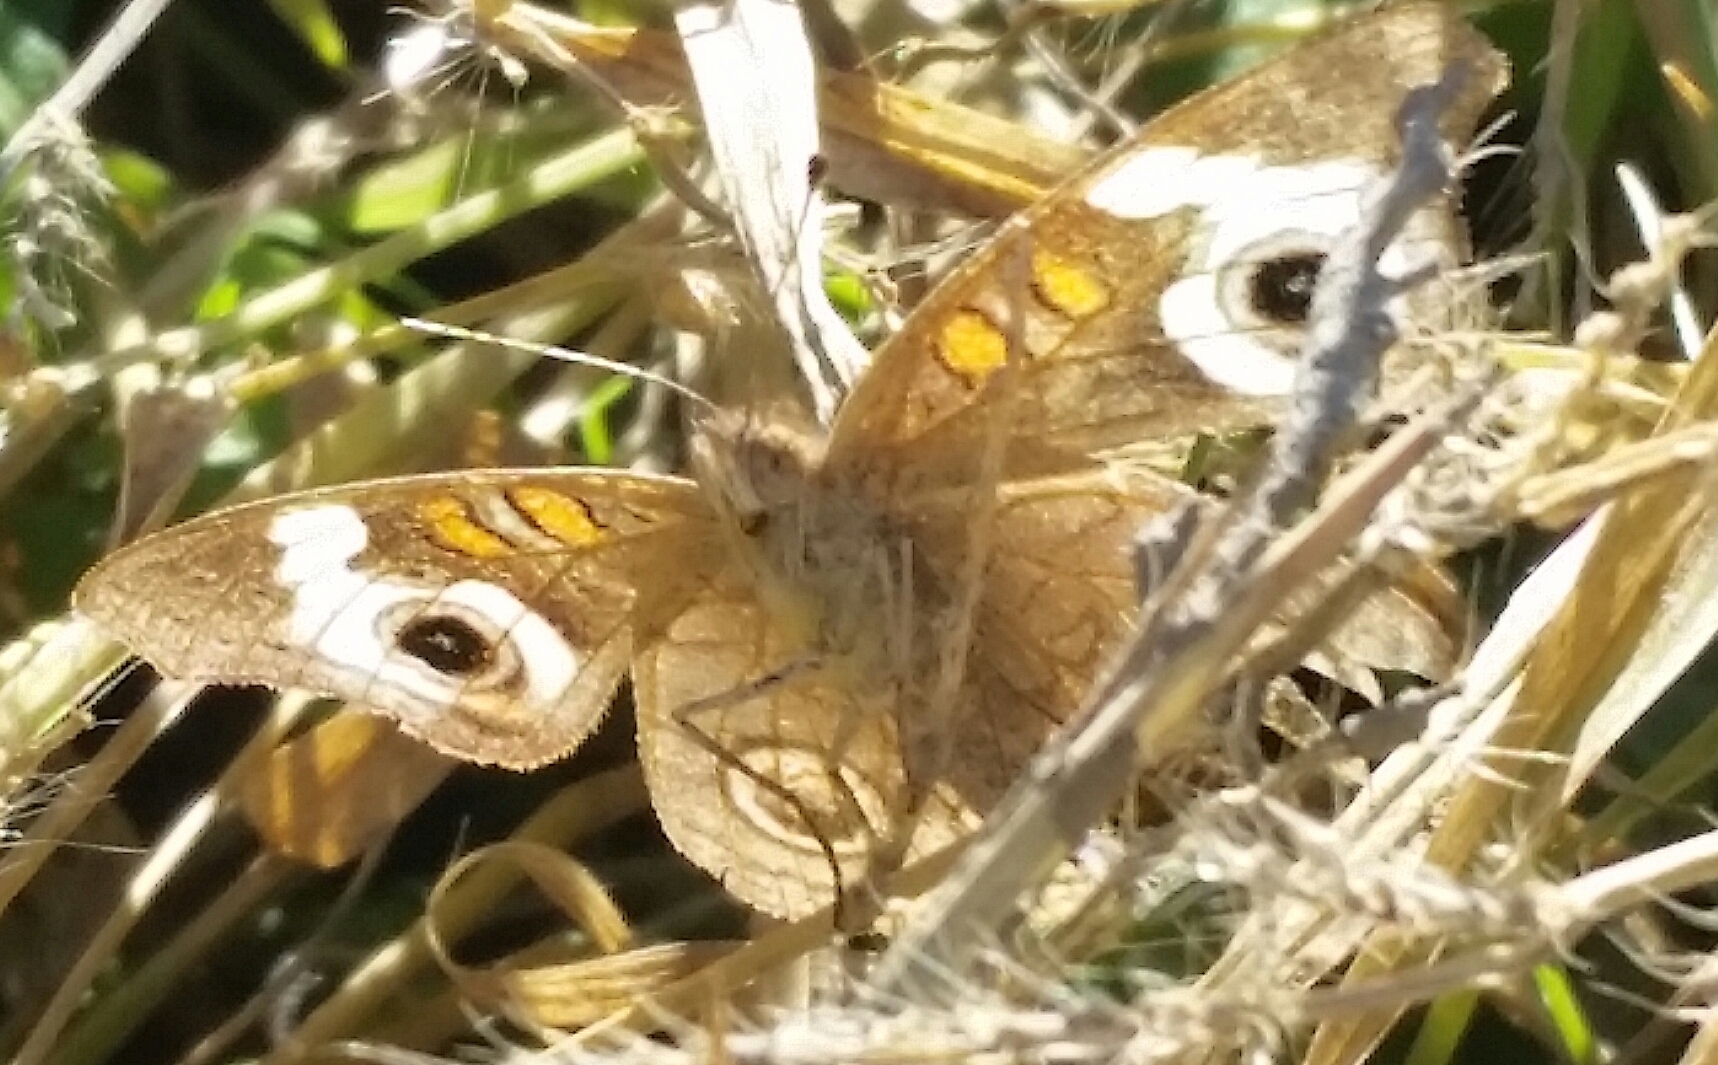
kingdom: Animalia
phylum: Arthropoda
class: Insecta
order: Lepidoptera
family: Nymphalidae
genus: Junonia
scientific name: Junonia grisea
